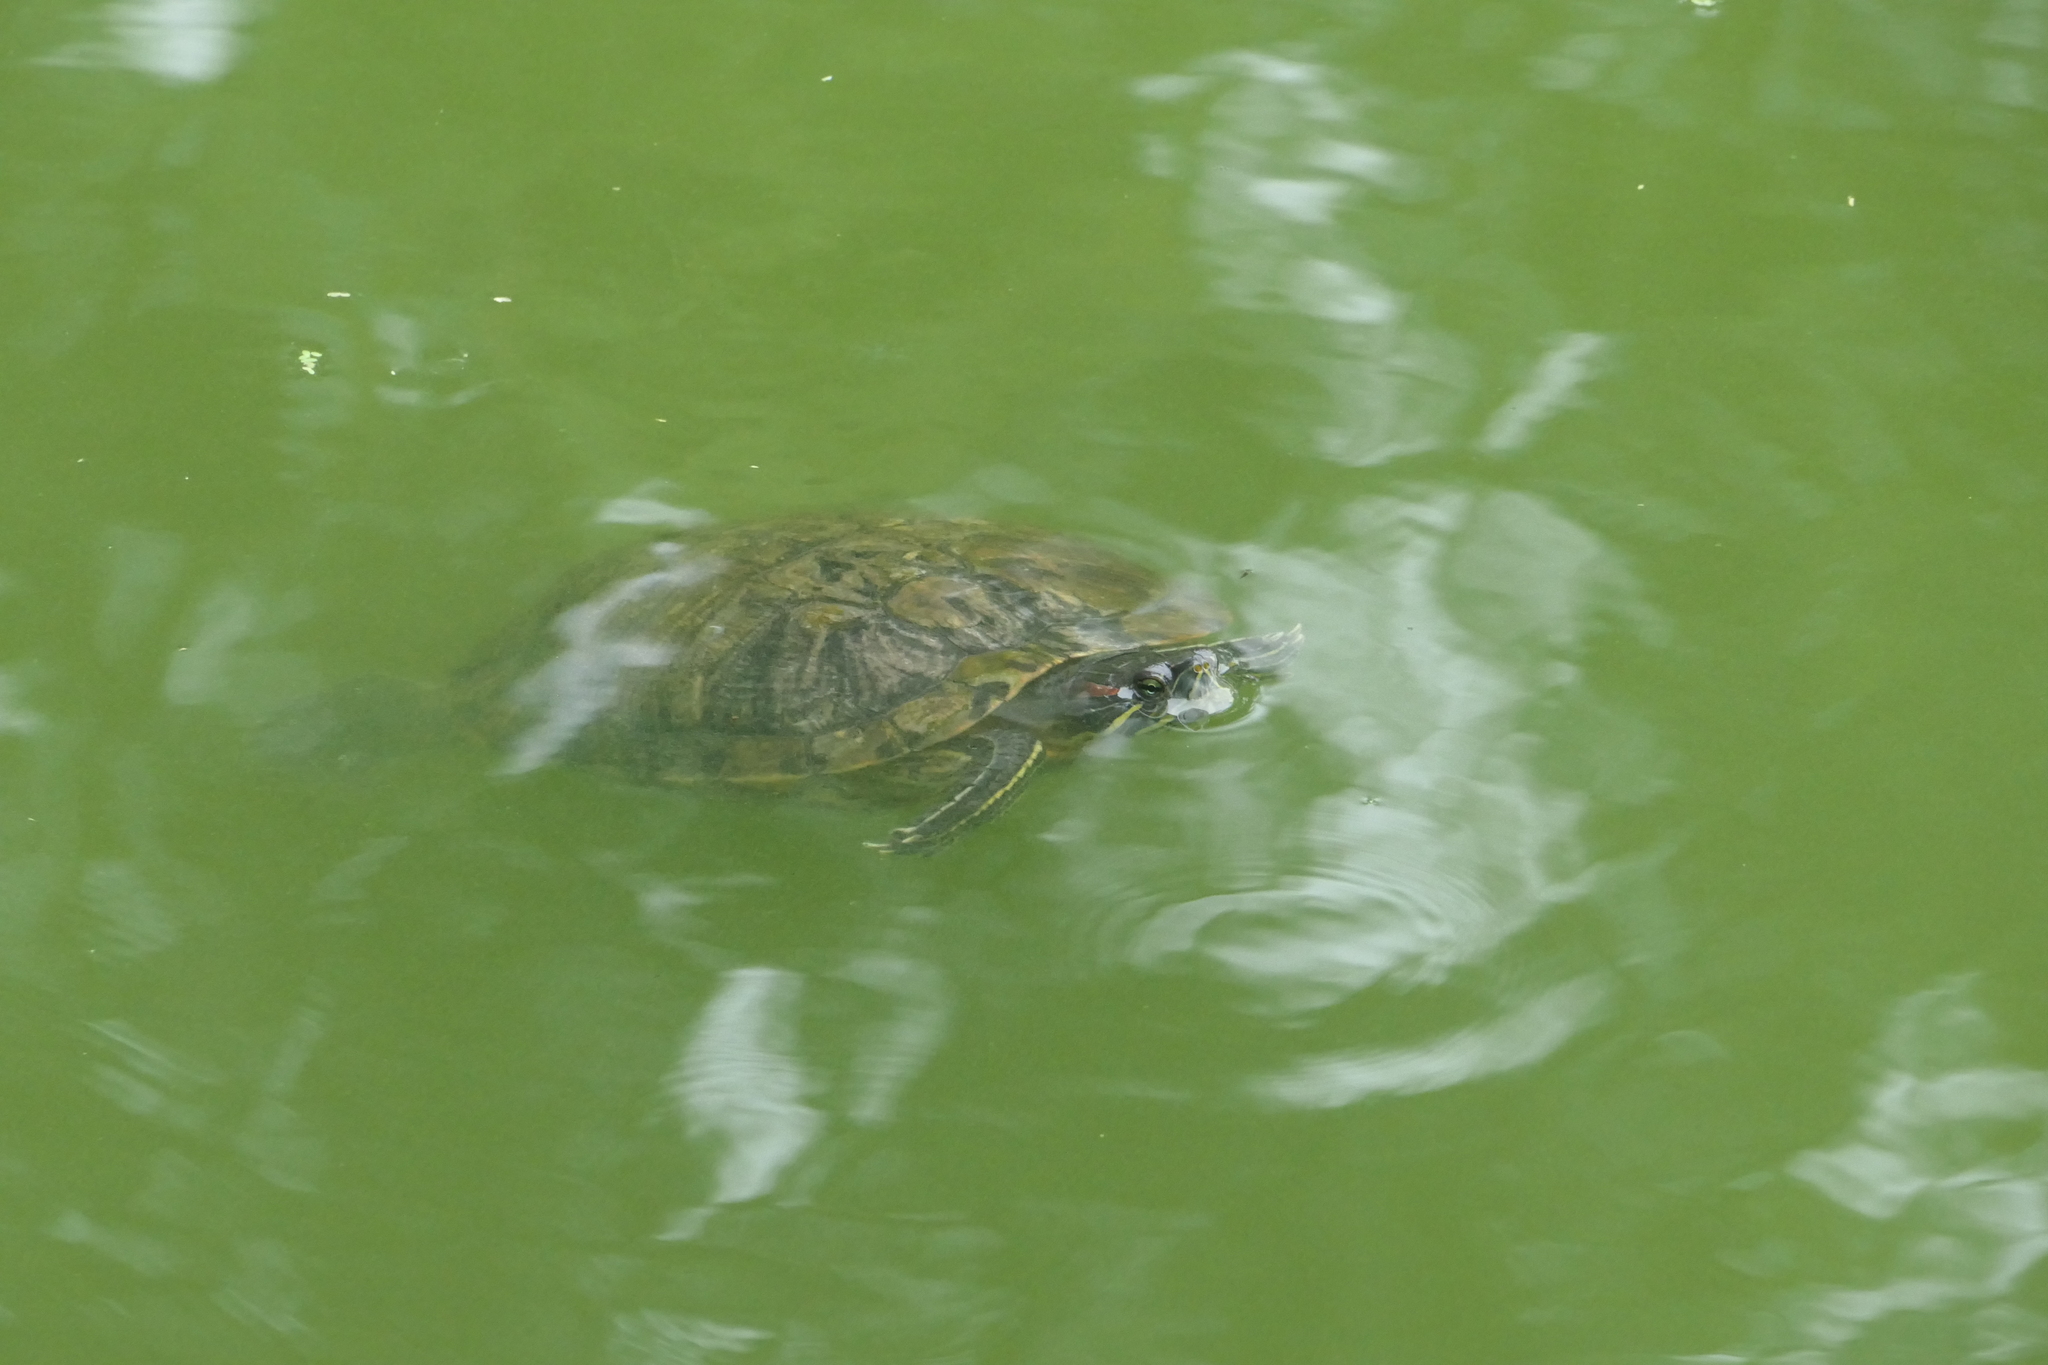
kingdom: Animalia
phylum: Chordata
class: Testudines
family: Emydidae
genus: Trachemys
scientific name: Trachemys scripta
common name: Slider
